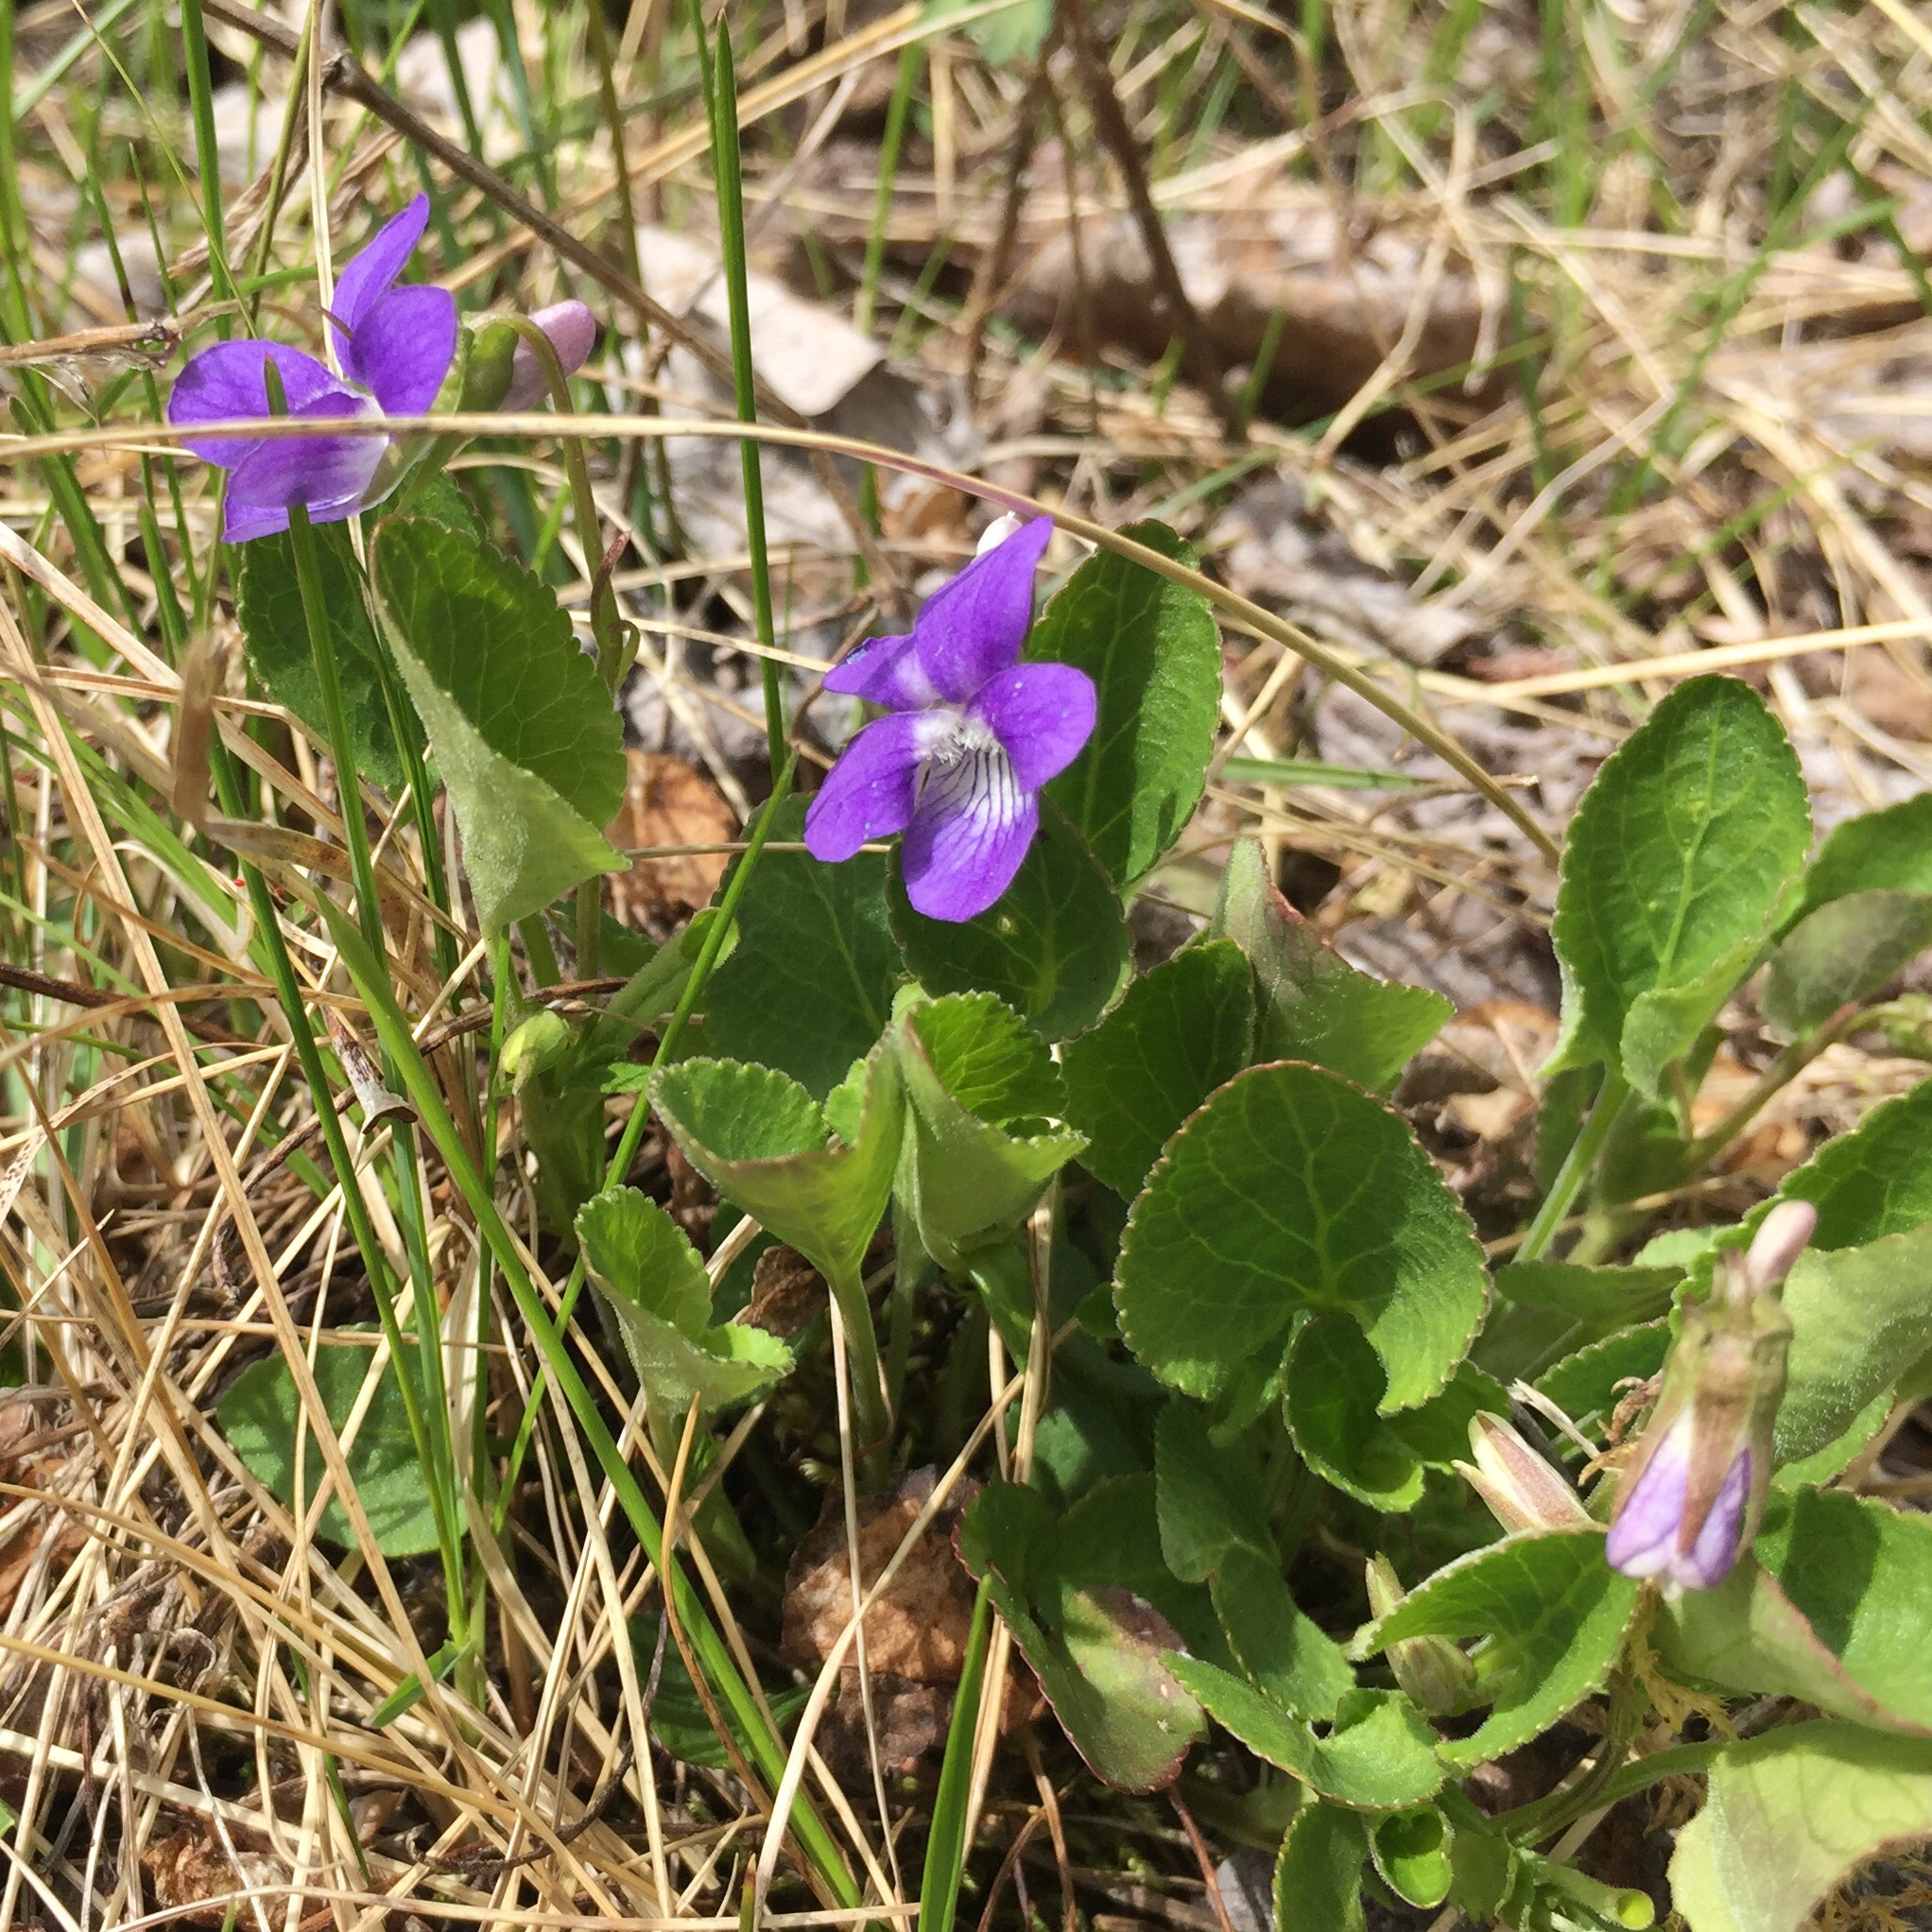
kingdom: Plantae
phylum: Tracheophyta
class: Magnoliopsida
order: Malpighiales
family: Violaceae
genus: Viola
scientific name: Viola adunca
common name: Sand violet
